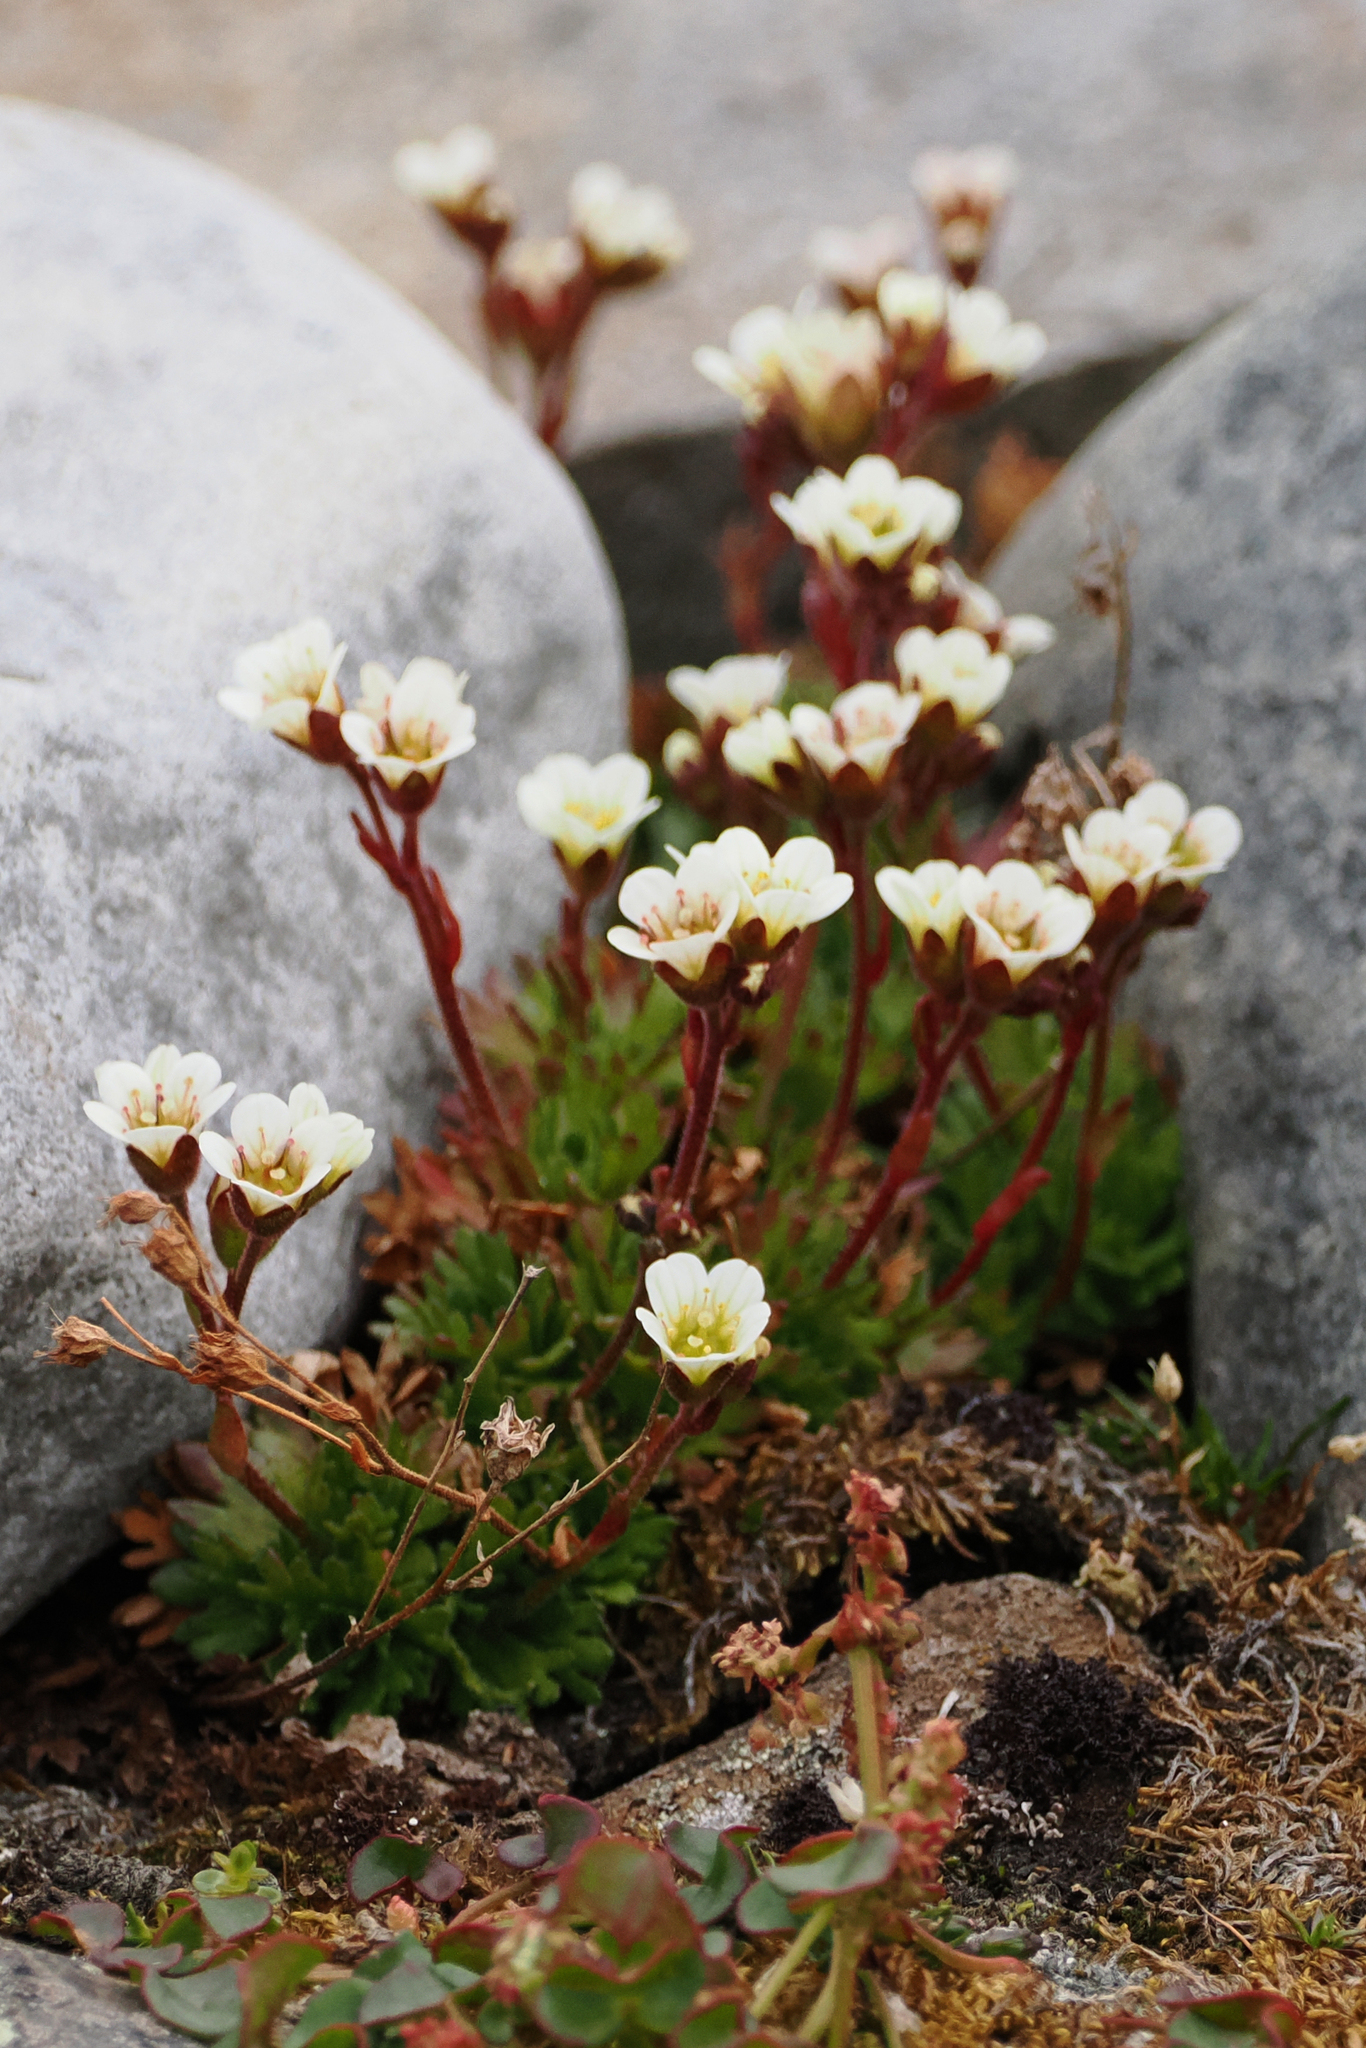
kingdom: Plantae
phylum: Tracheophyta
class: Magnoliopsida
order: Saxifragales
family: Saxifragaceae
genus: Saxifraga
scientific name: Saxifraga cespitosa
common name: Tufted saxifrage
